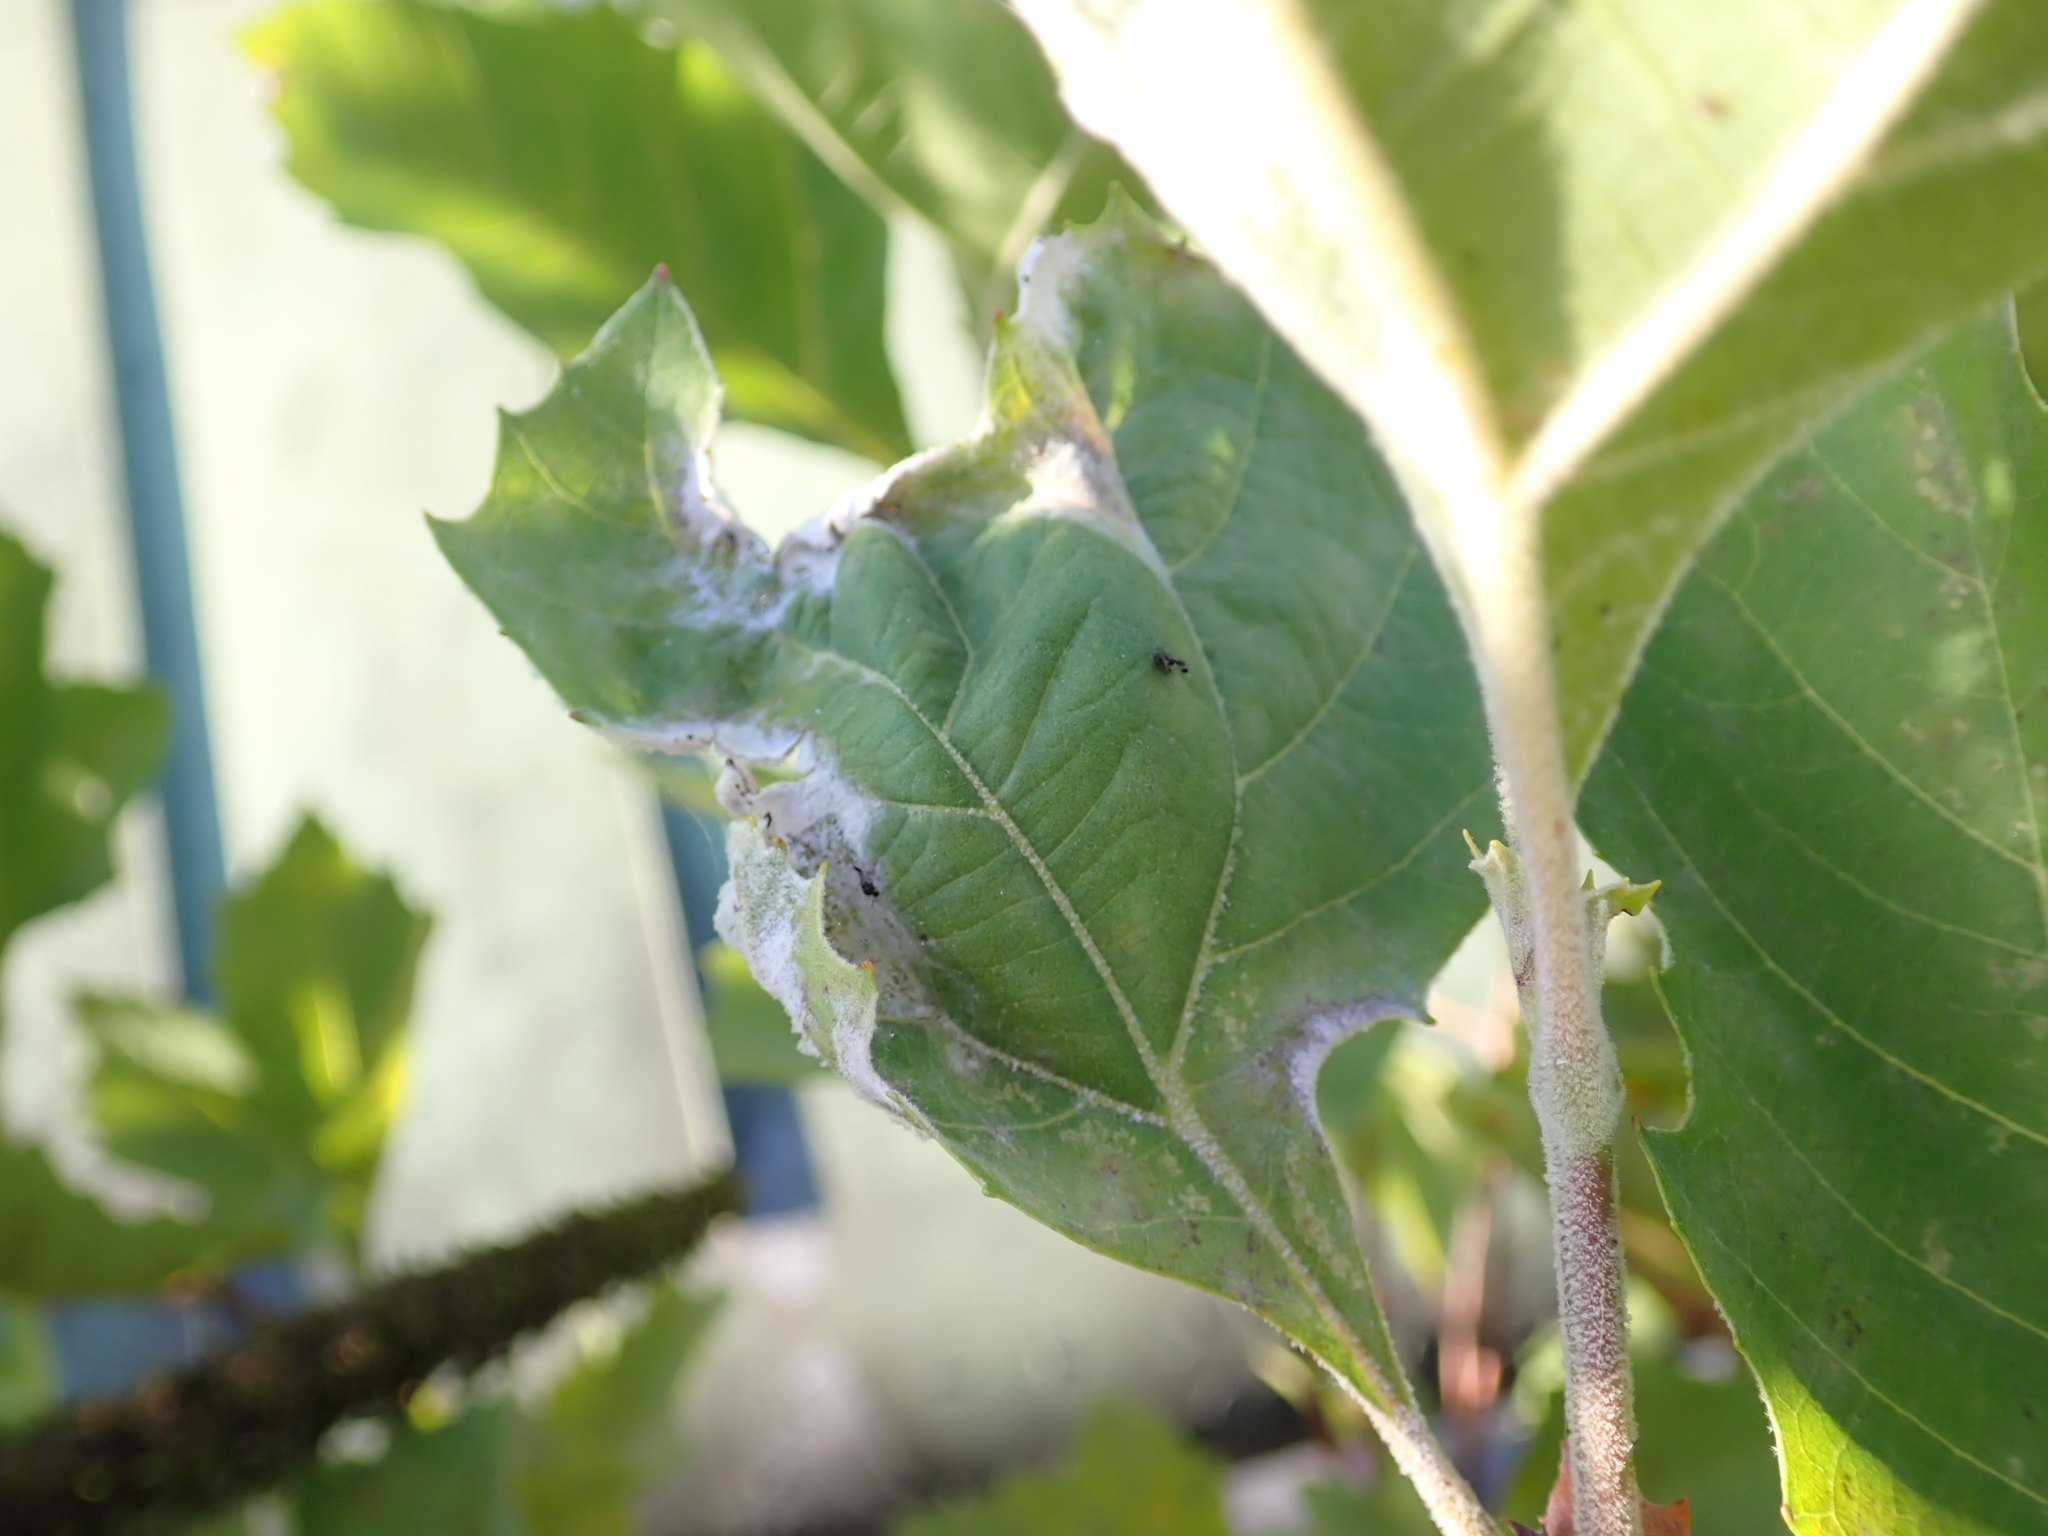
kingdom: Fungi
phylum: Ascomycota
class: Leotiomycetes
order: Helotiales
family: Erysiphaceae
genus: Erysiphe
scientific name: Erysiphe platani
